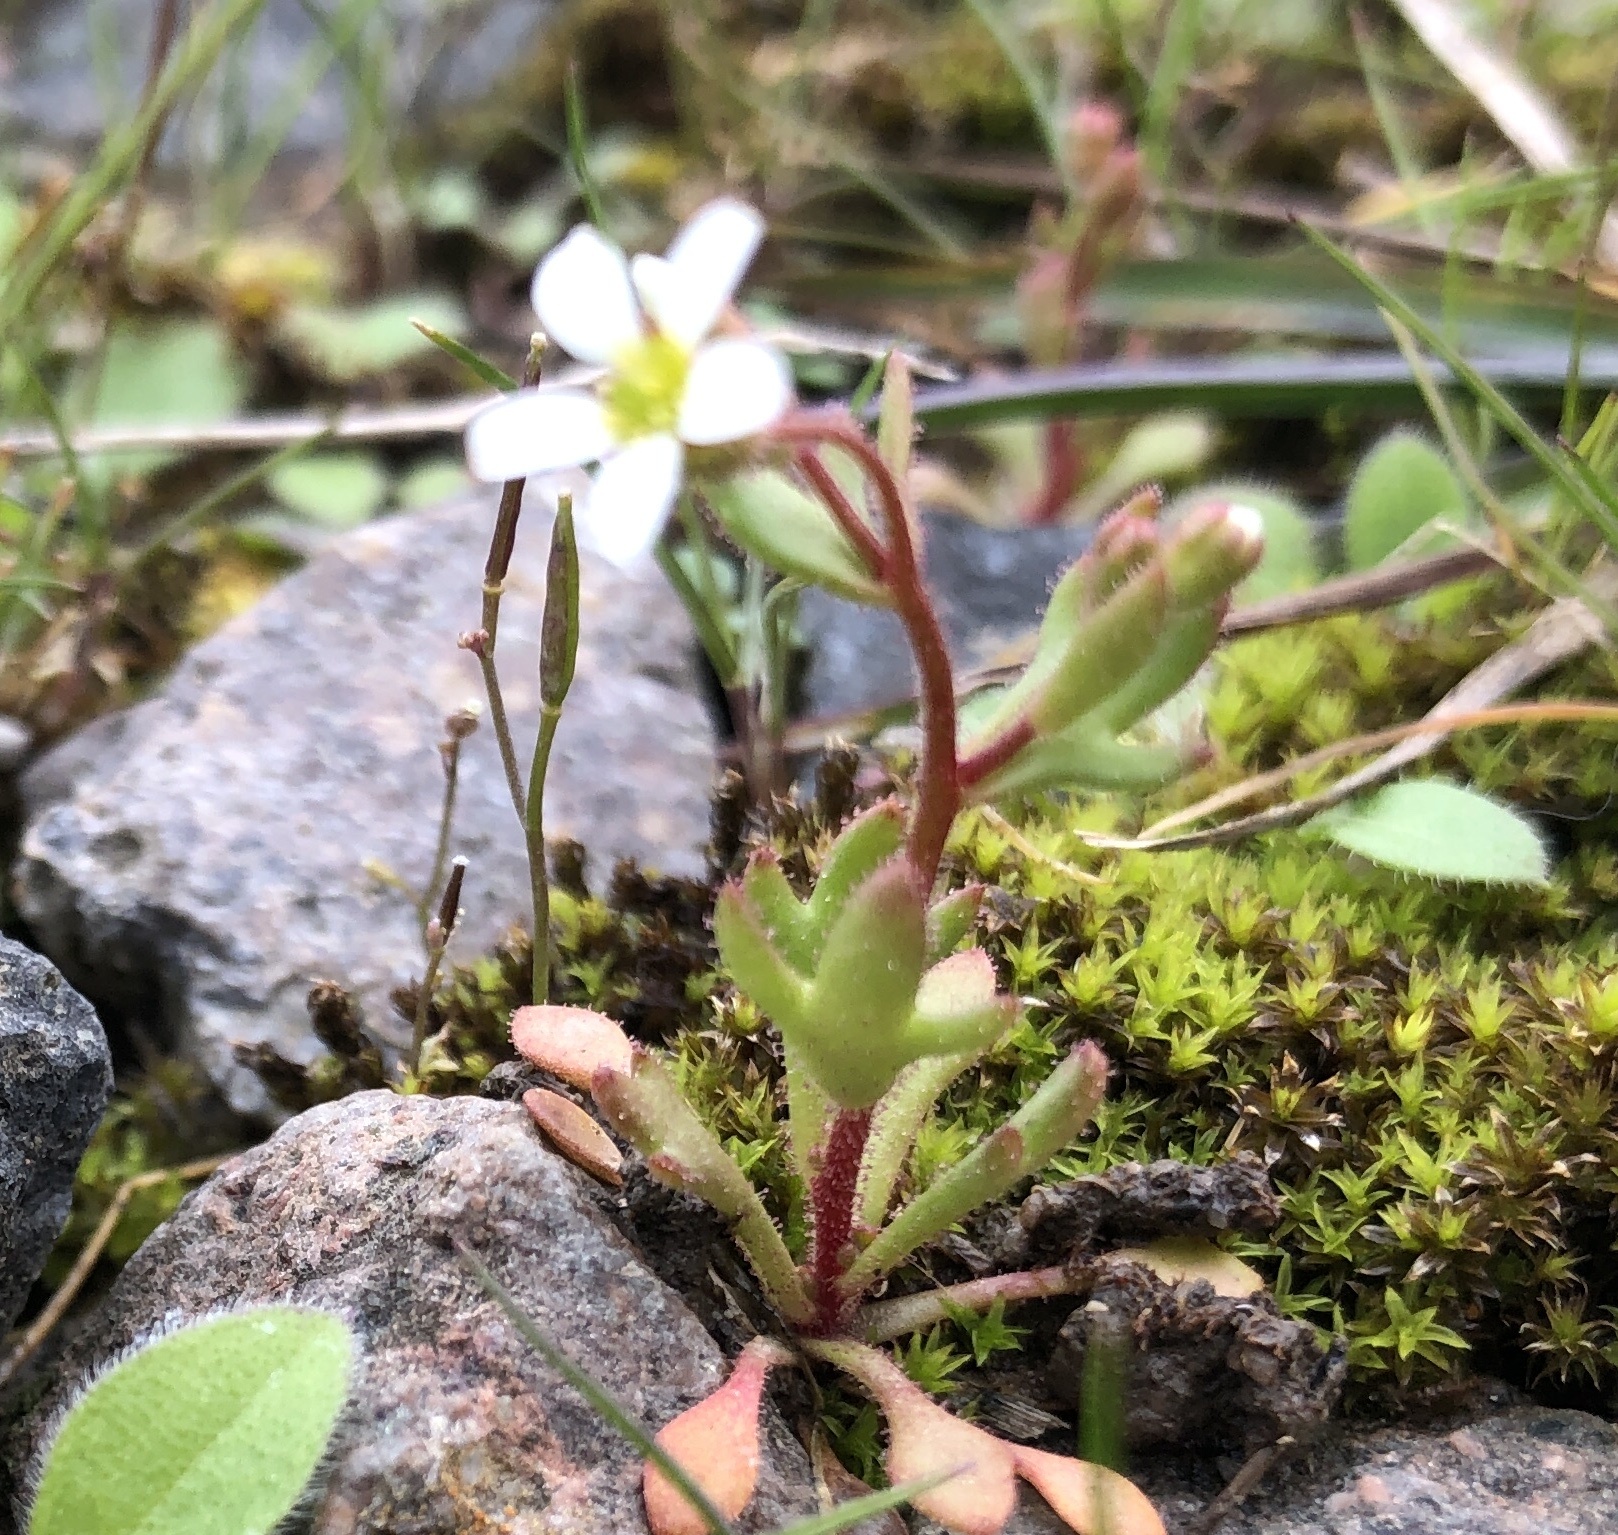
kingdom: Plantae
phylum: Tracheophyta
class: Magnoliopsida
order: Saxifragales
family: Saxifragaceae
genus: Saxifraga
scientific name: Saxifraga tridactylites
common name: Rue-leaved saxifrage
